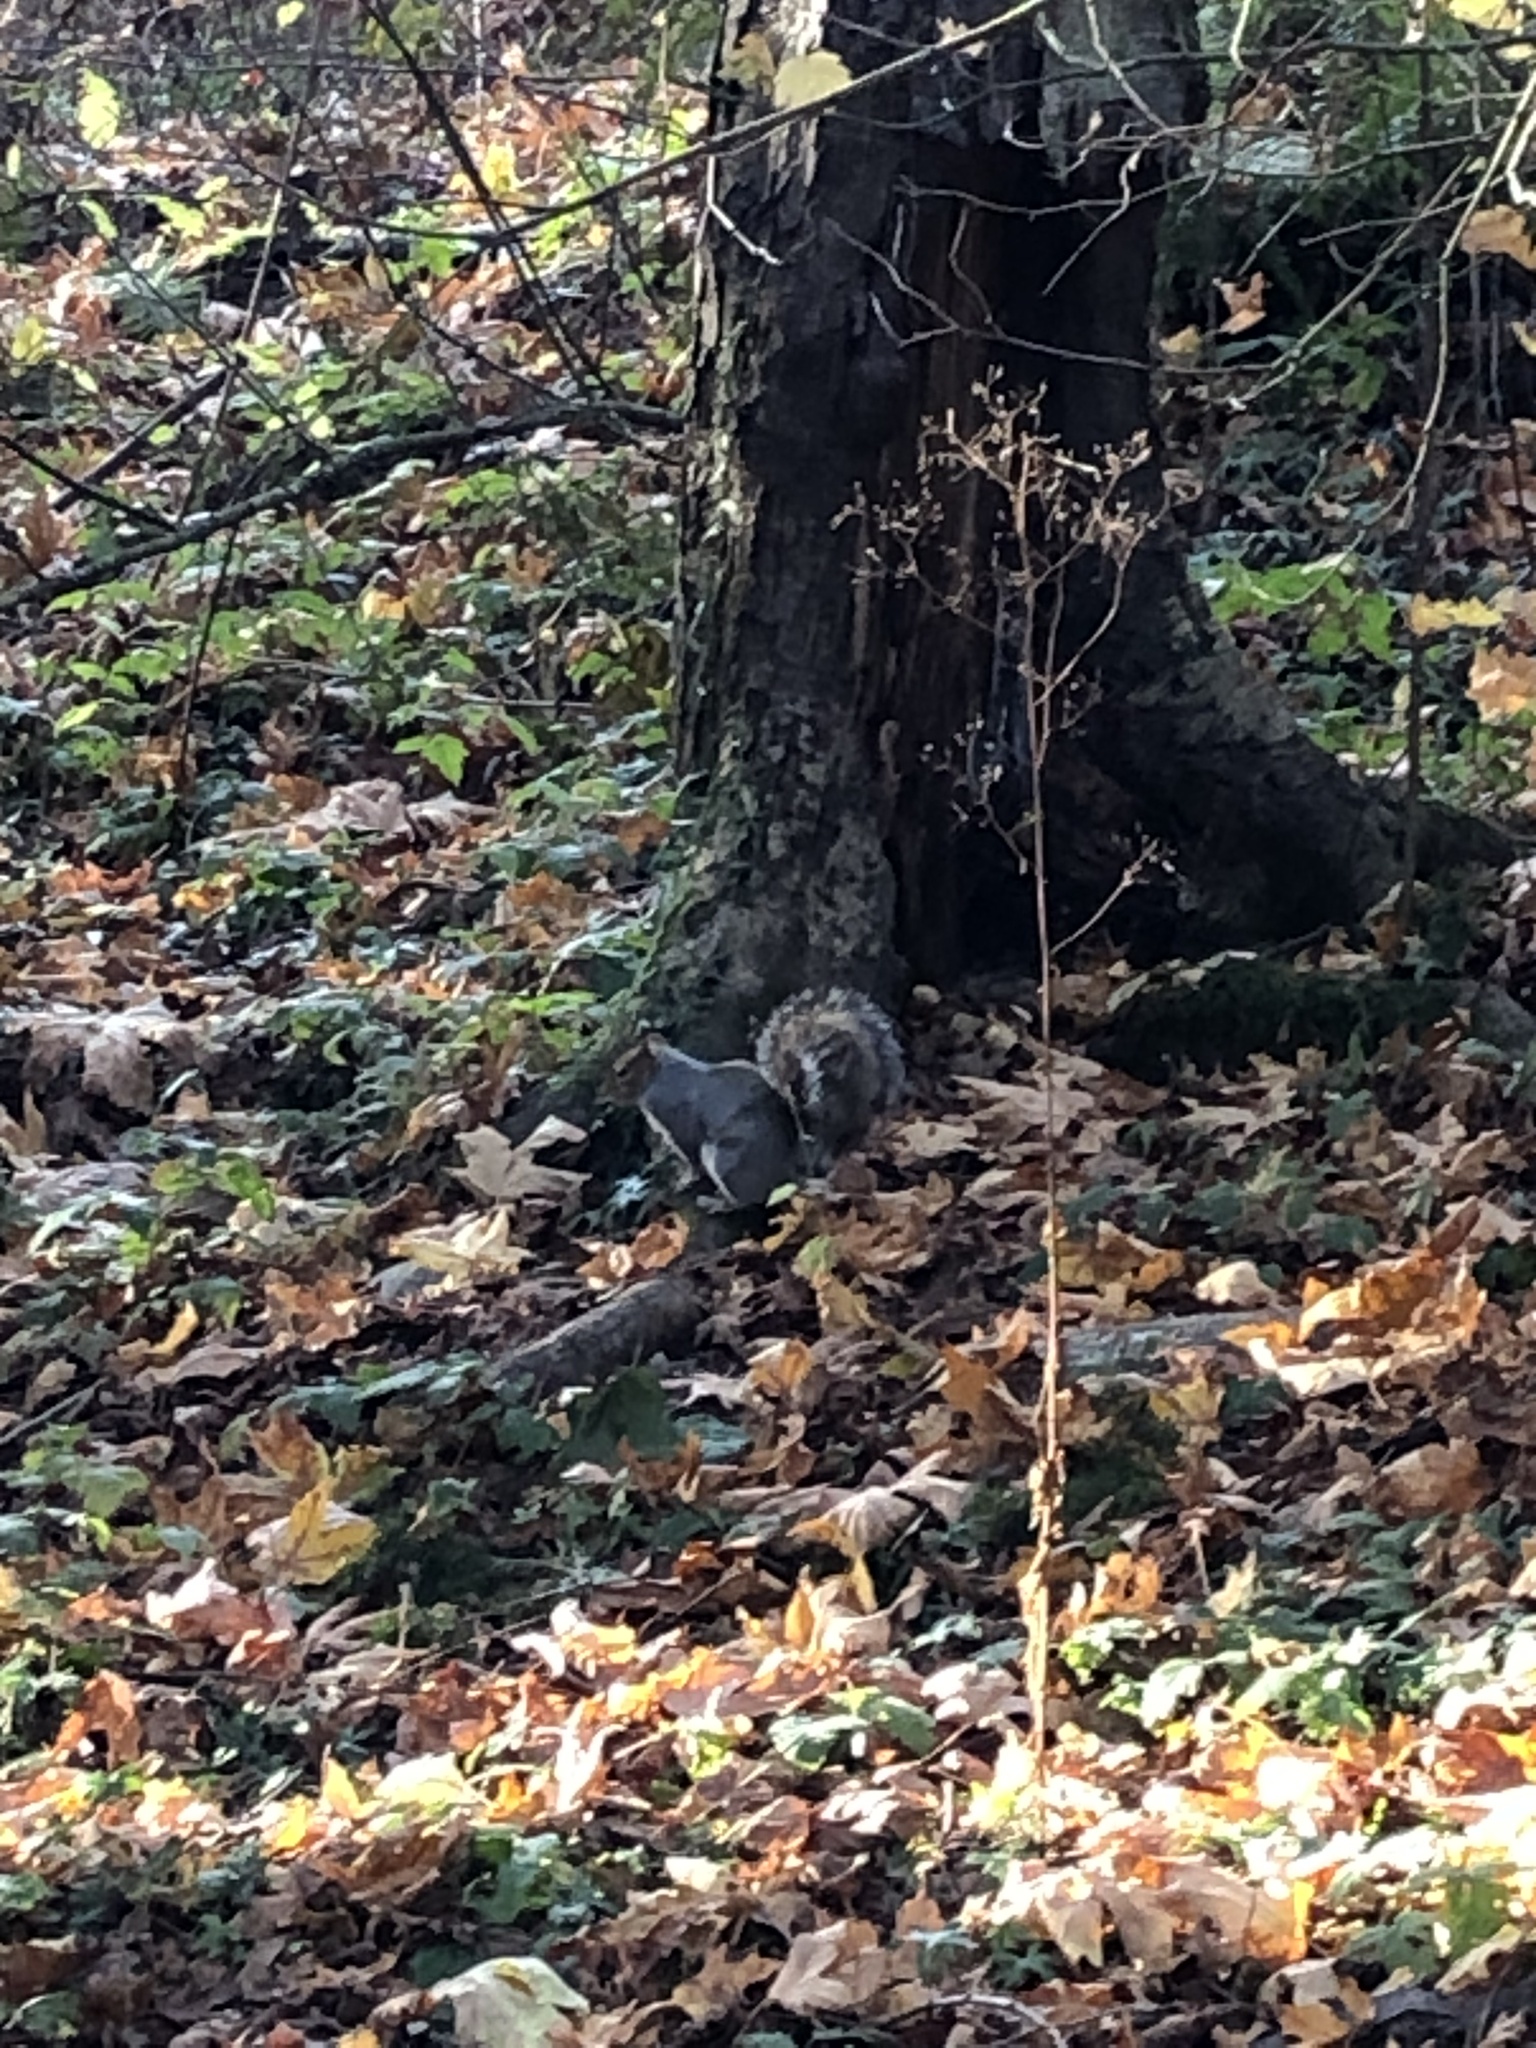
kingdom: Animalia
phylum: Chordata
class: Mammalia
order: Rodentia
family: Sciuridae
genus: Sciurus
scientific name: Sciurus carolinensis
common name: Eastern gray squirrel
